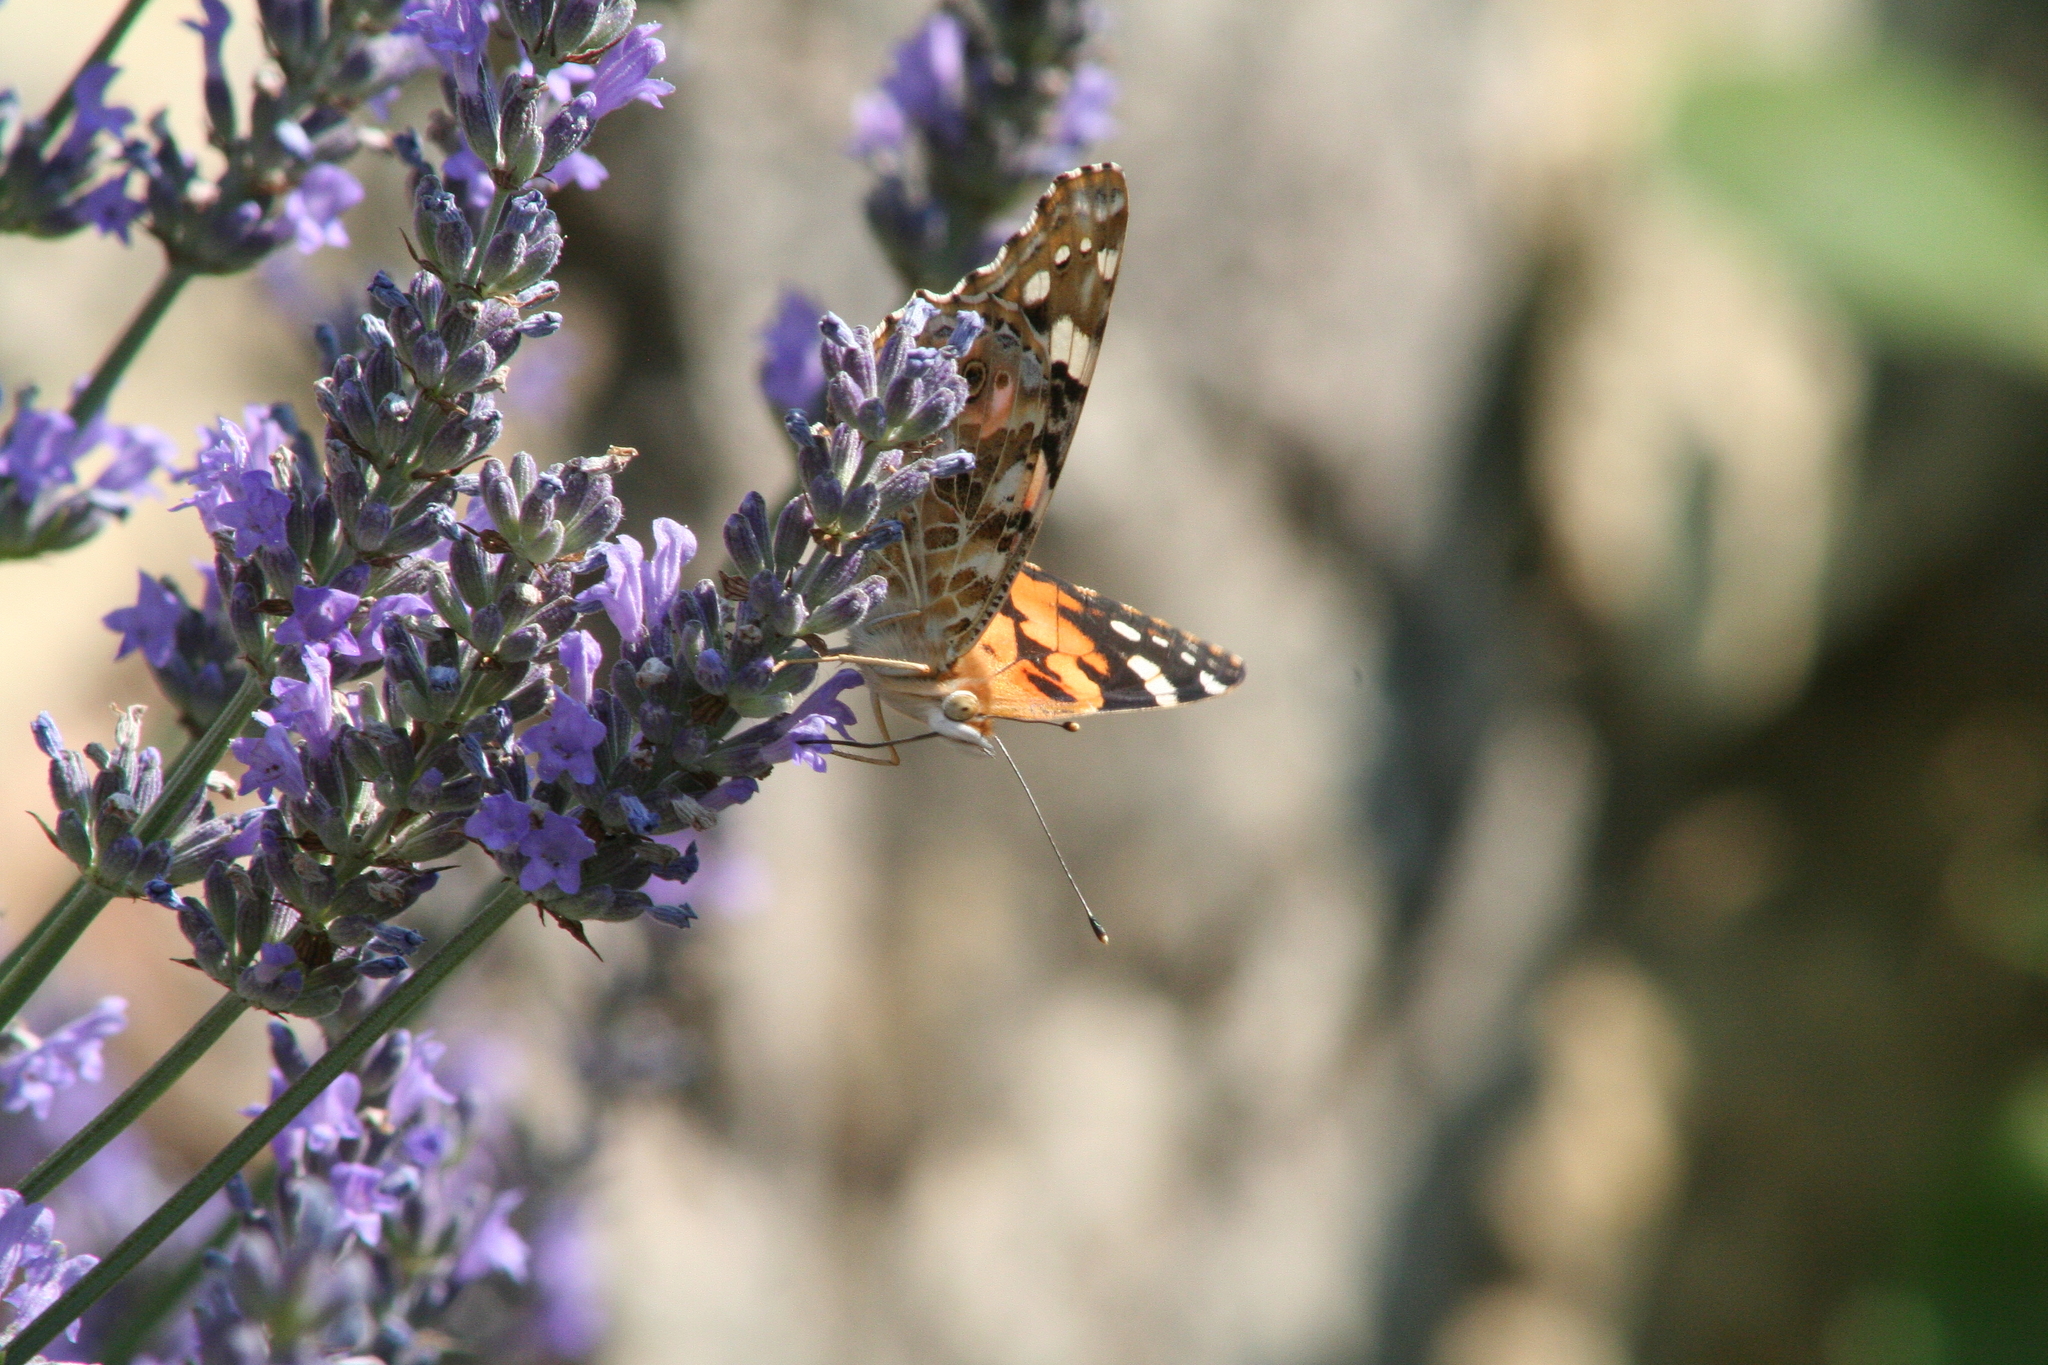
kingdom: Animalia
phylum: Arthropoda
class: Insecta
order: Lepidoptera
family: Nymphalidae
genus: Vanessa
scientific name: Vanessa cardui
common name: Painted lady
